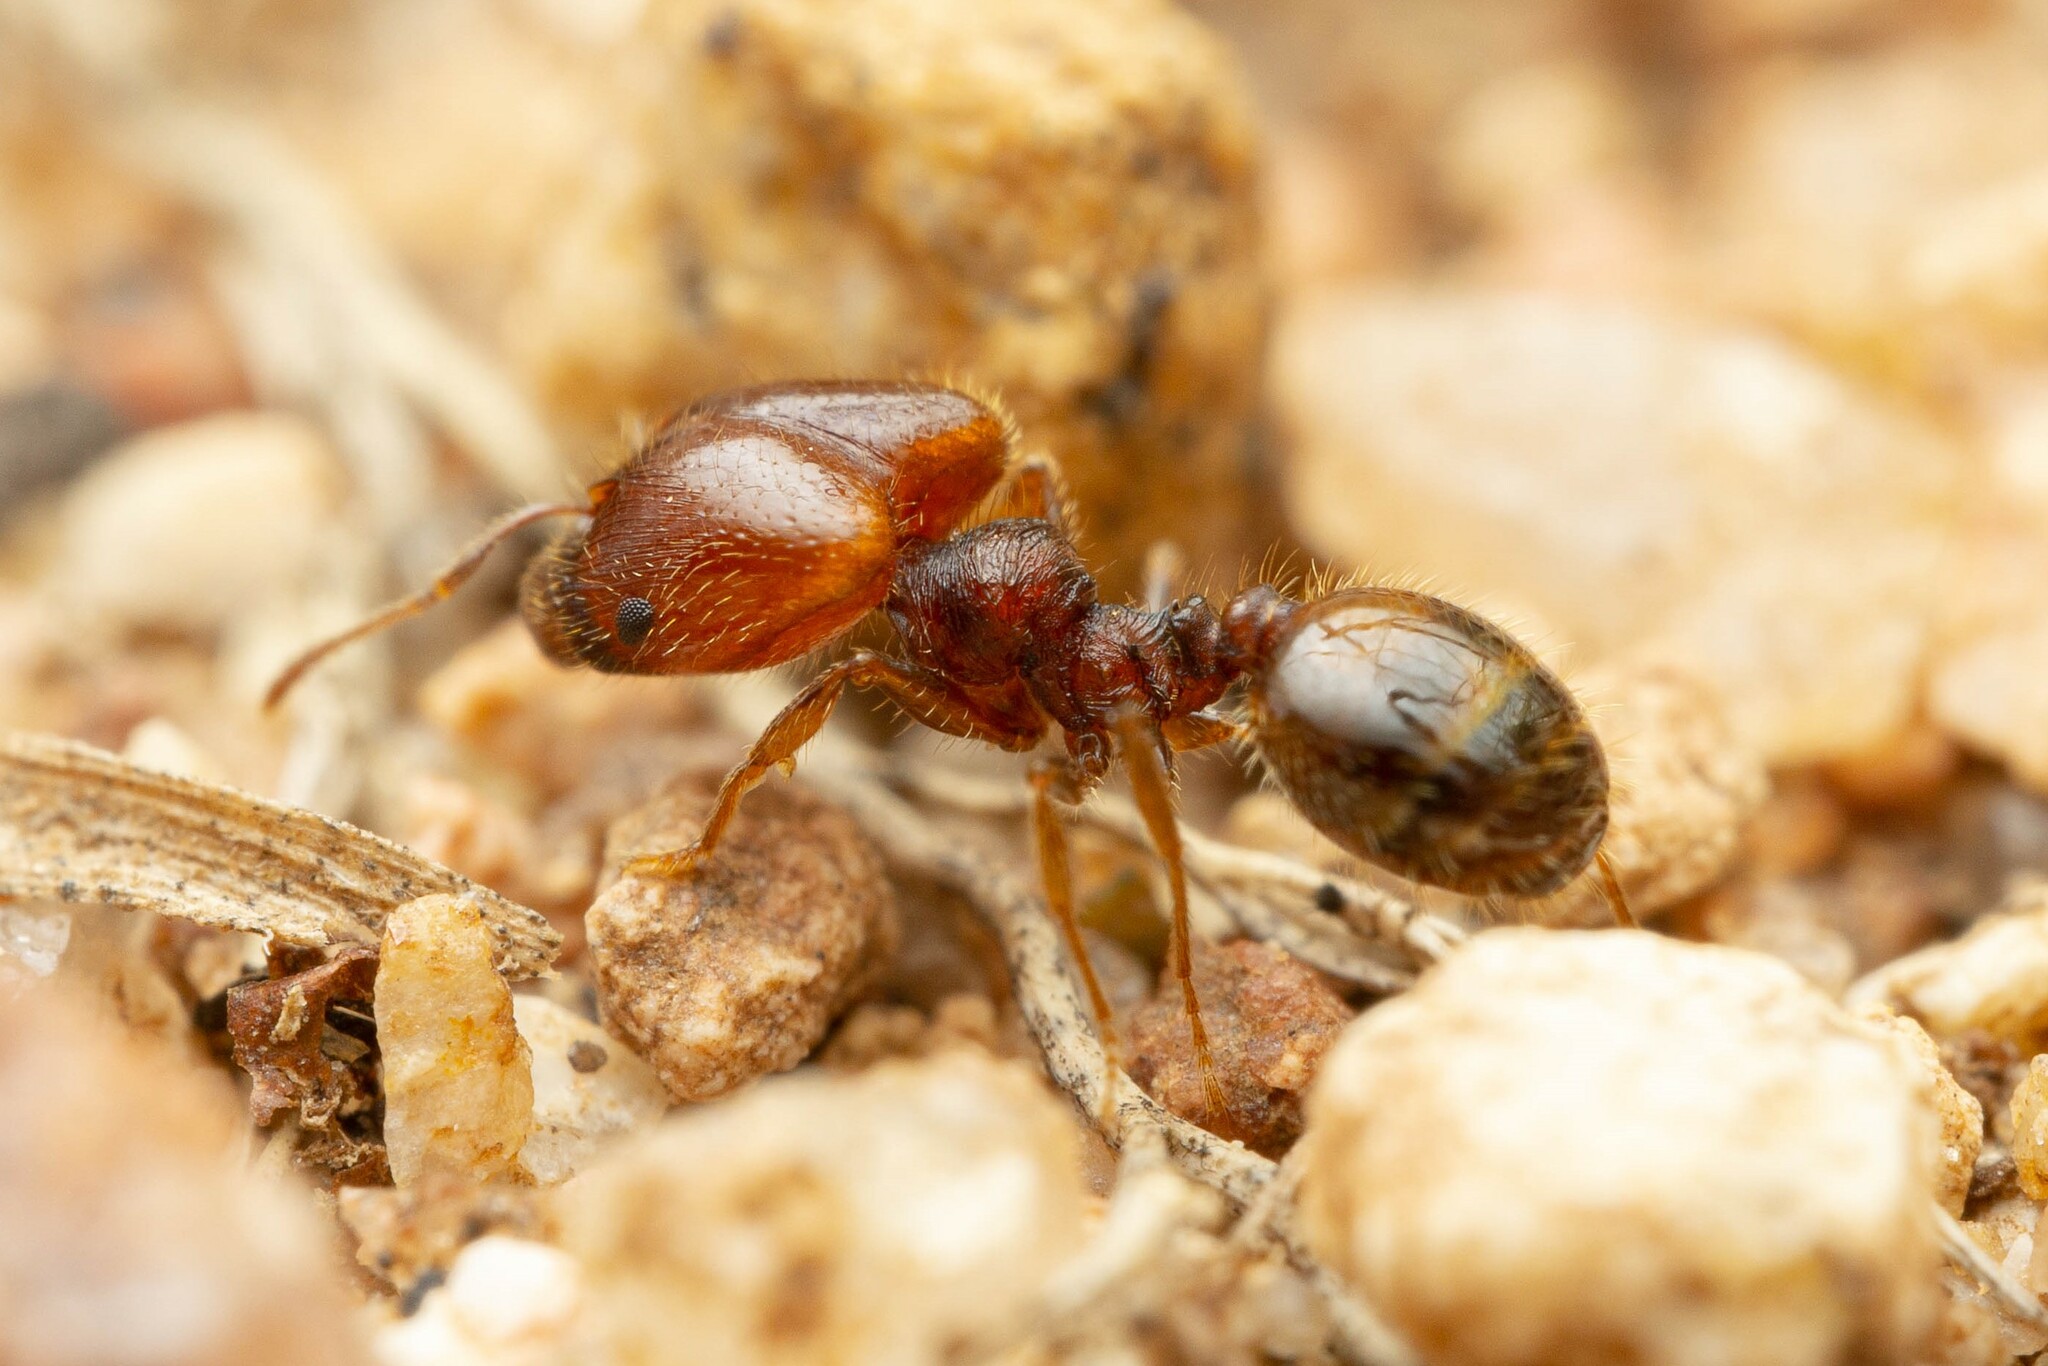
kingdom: Animalia
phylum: Arthropoda
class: Insecta
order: Hymenoptera
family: Formicidae
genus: Pheidole
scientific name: Pheidole xerophila
